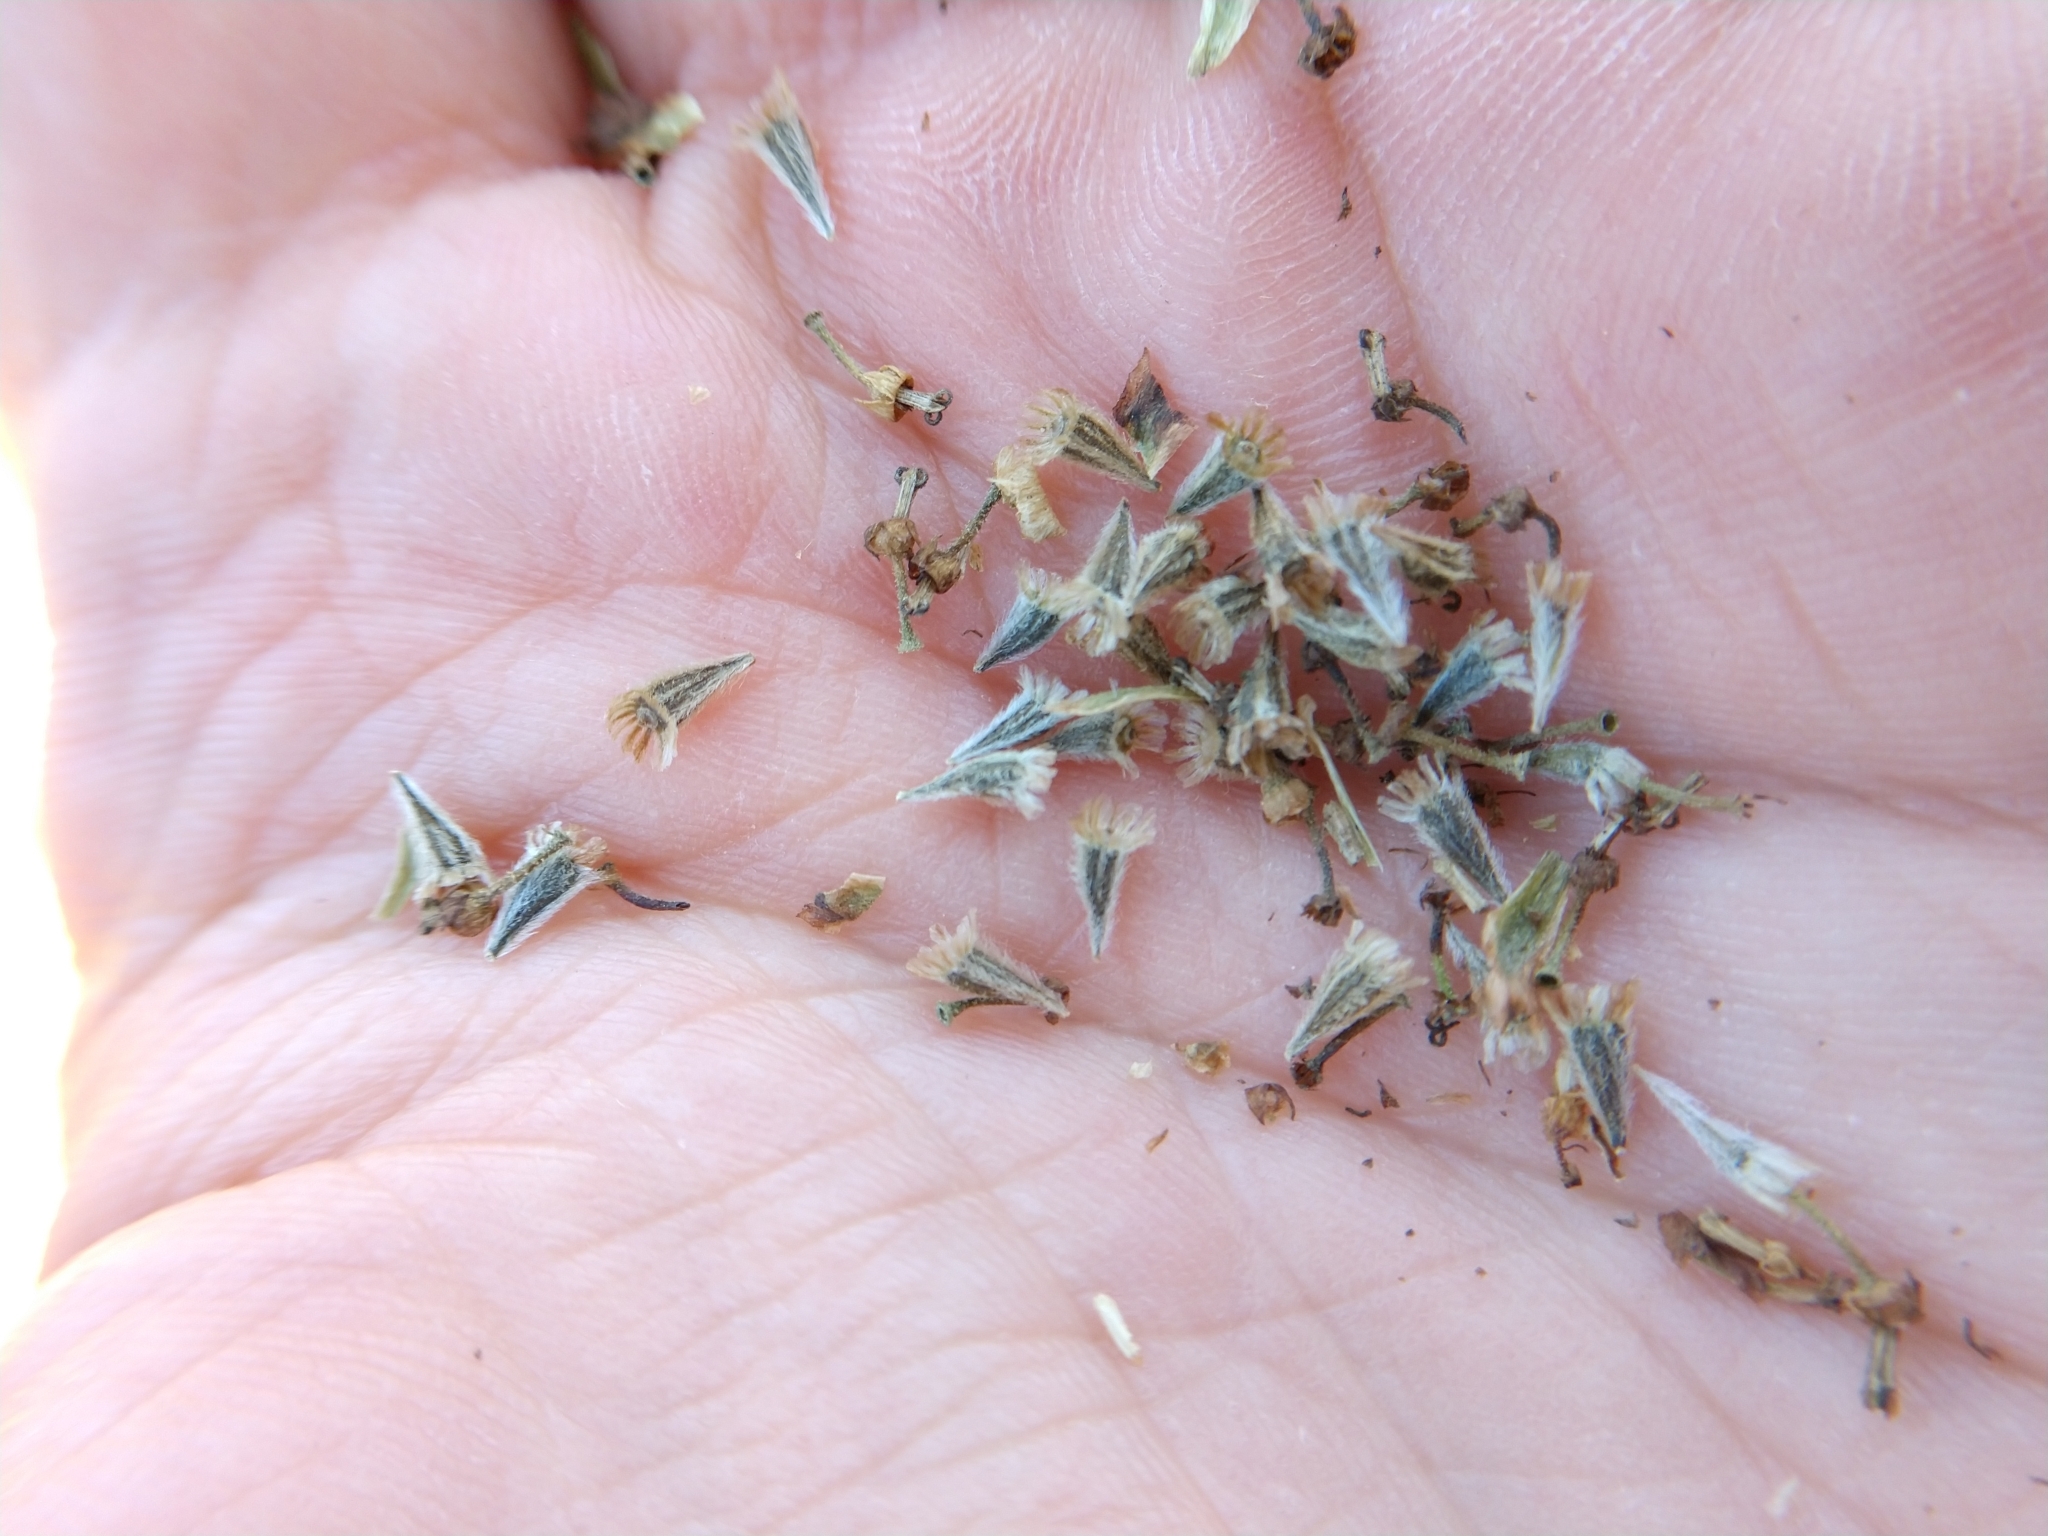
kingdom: Plantae
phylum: Tracheophyta
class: Magnoliopsida
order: Asterales
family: Asteraceae
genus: Hymenopappus
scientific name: Hymenopappus carrizoanus
